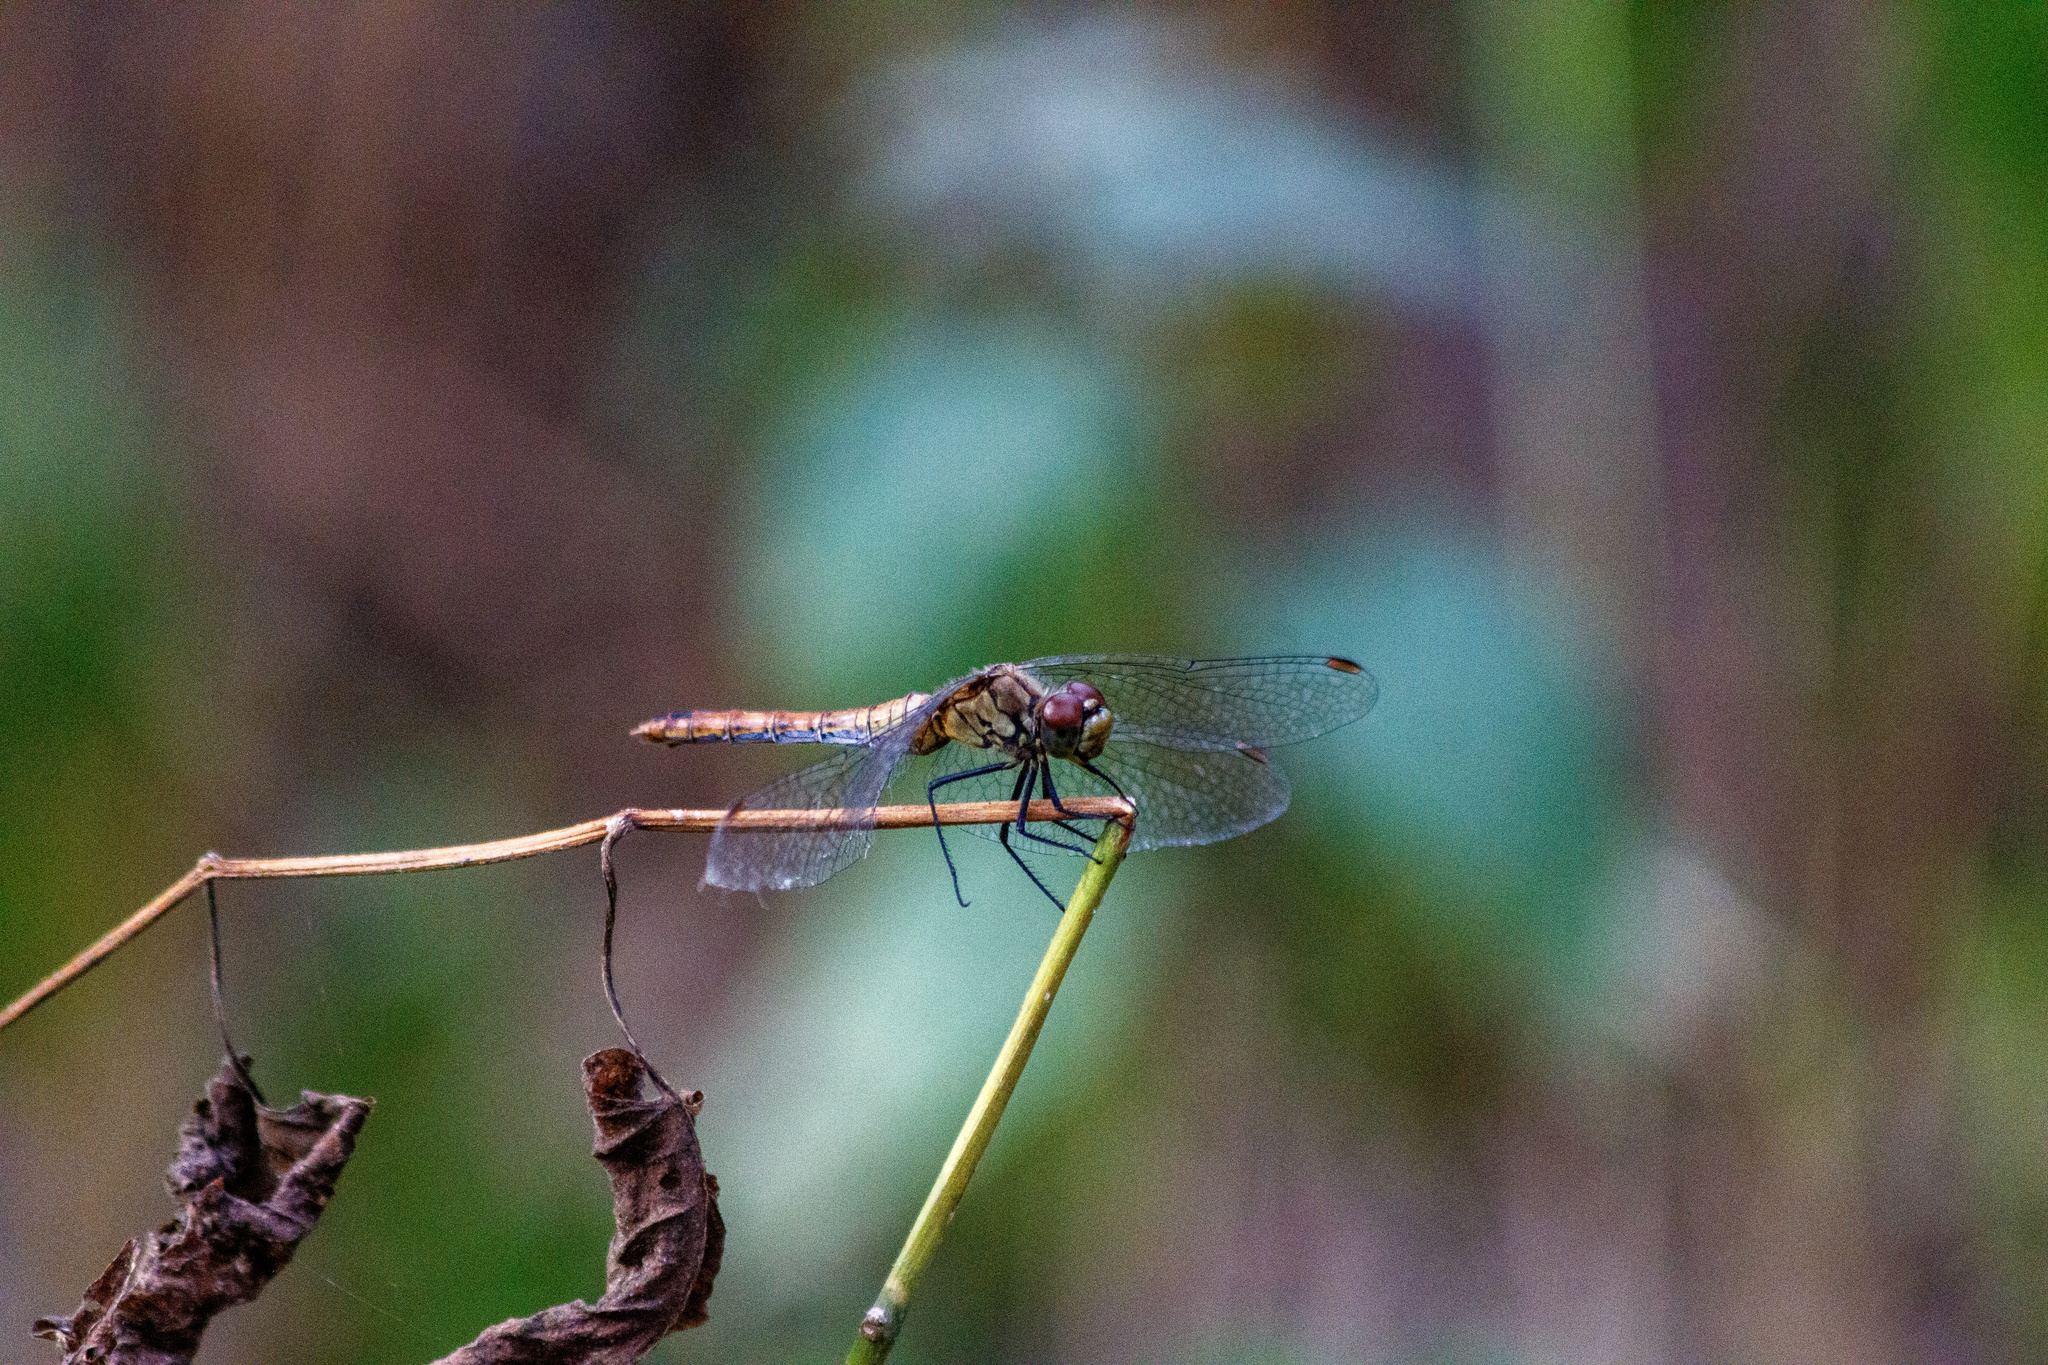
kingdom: Animalia
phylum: Arthropoda
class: Insecta
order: Odonata
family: Libellulidae
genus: Sympetrum
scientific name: Sympetrum sanguineum
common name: Ruddy darter
